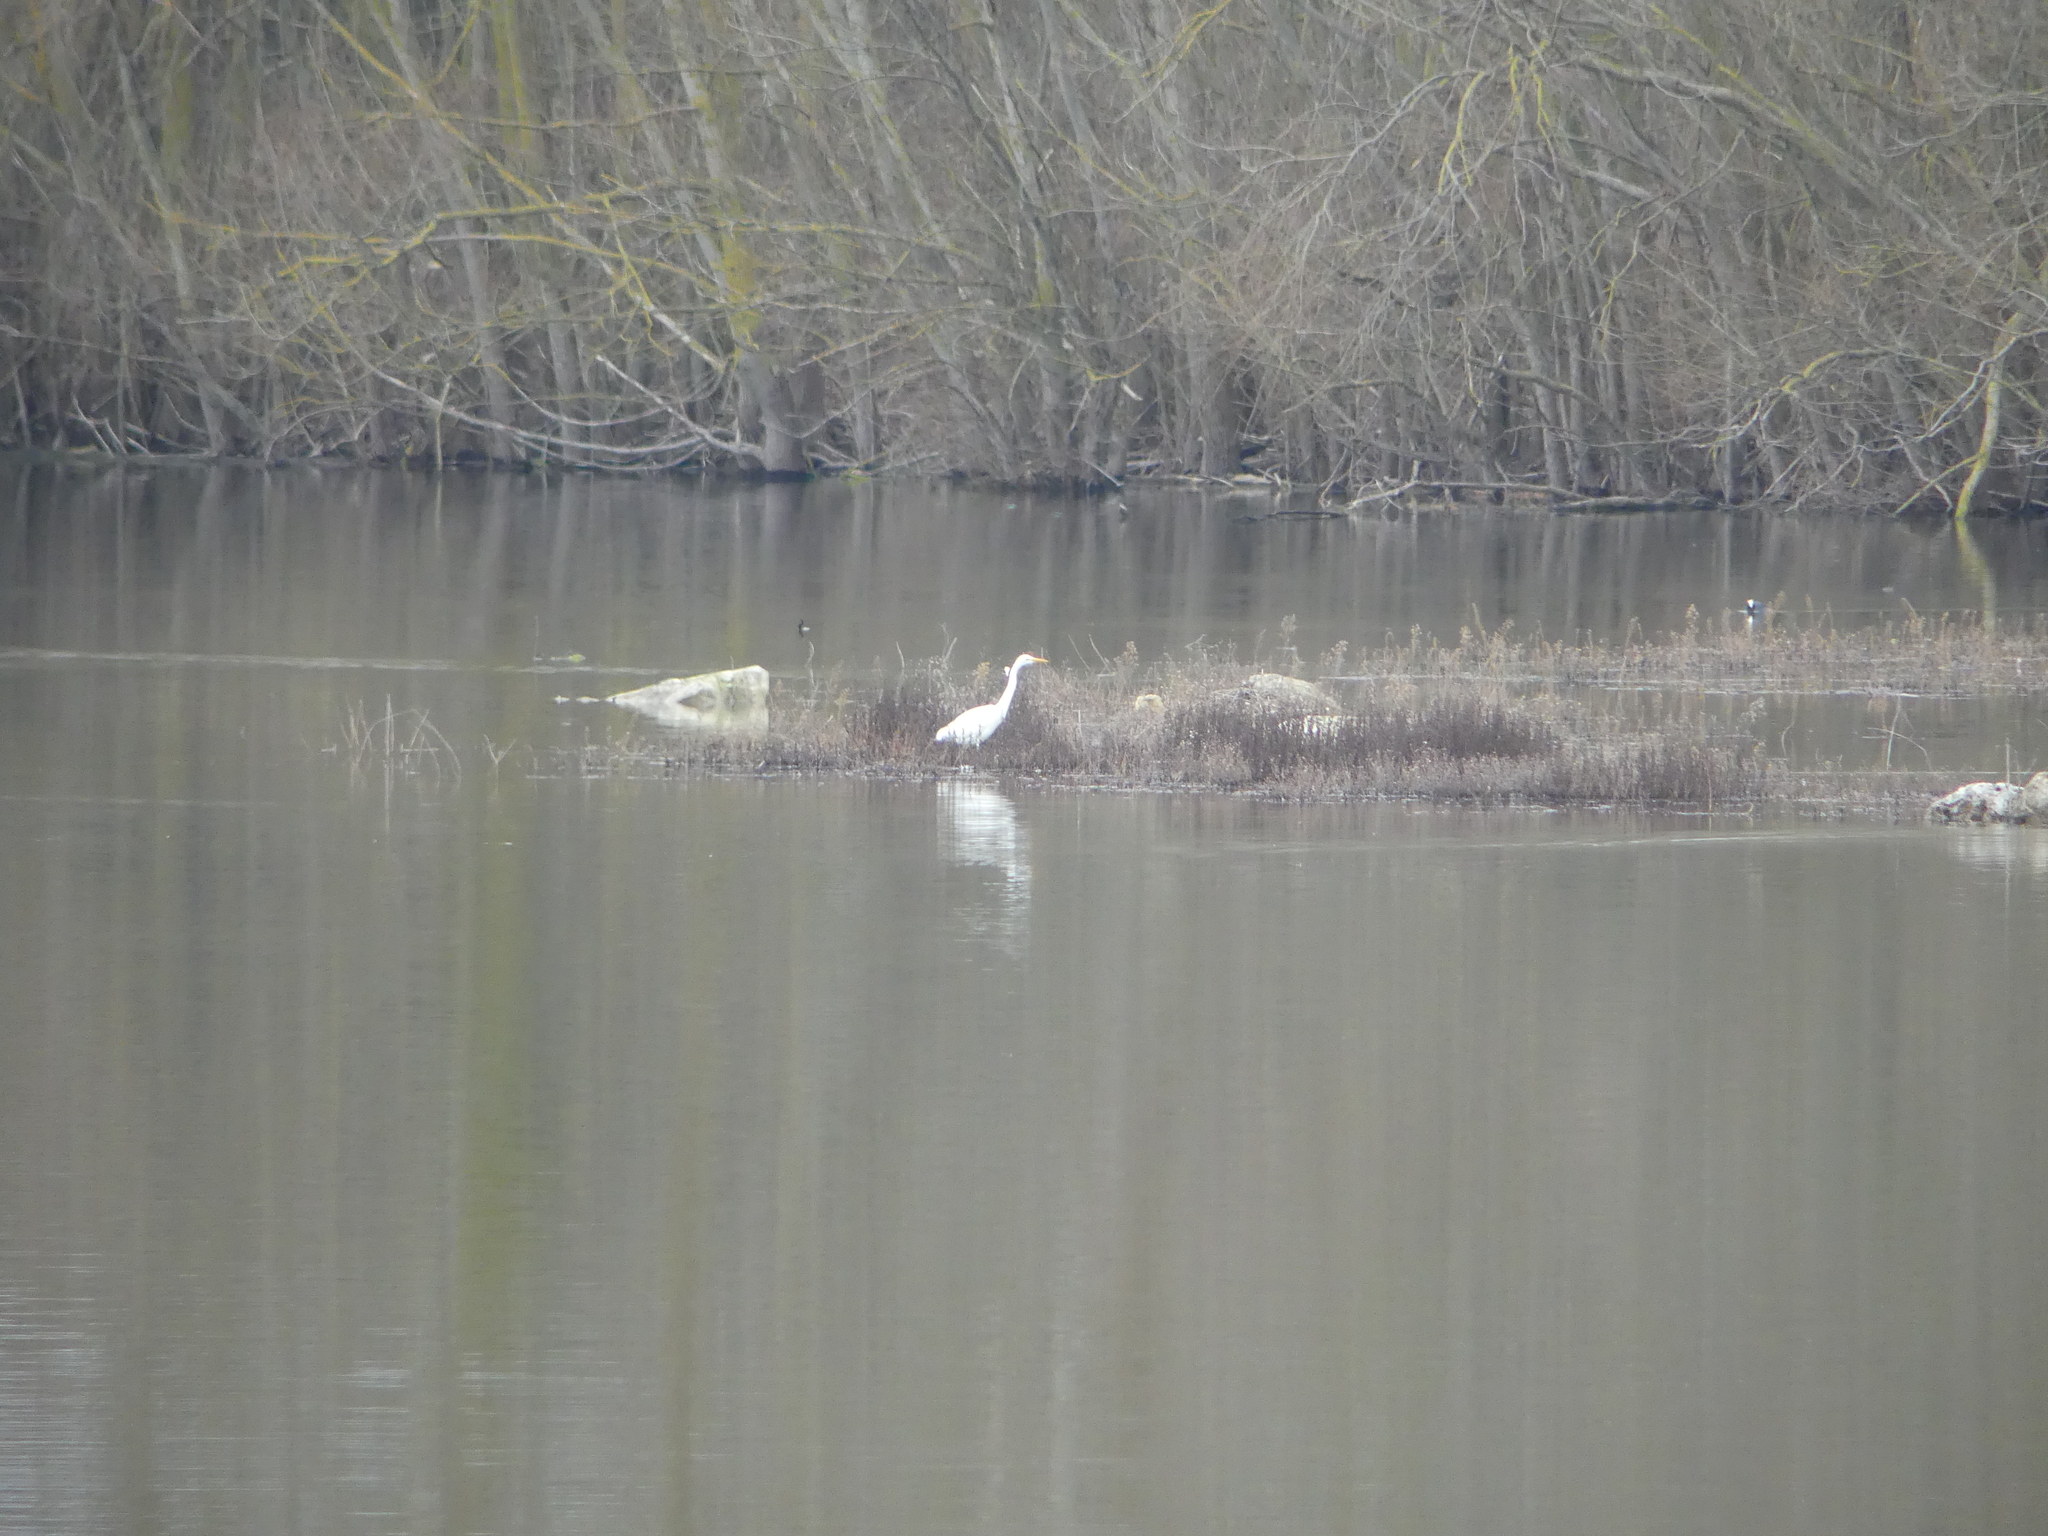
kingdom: Animalia
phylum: Chordata
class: Aves
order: Pelecaniformes
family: Ardeidae
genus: Ardea
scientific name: Ardea alba
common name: Great egret
